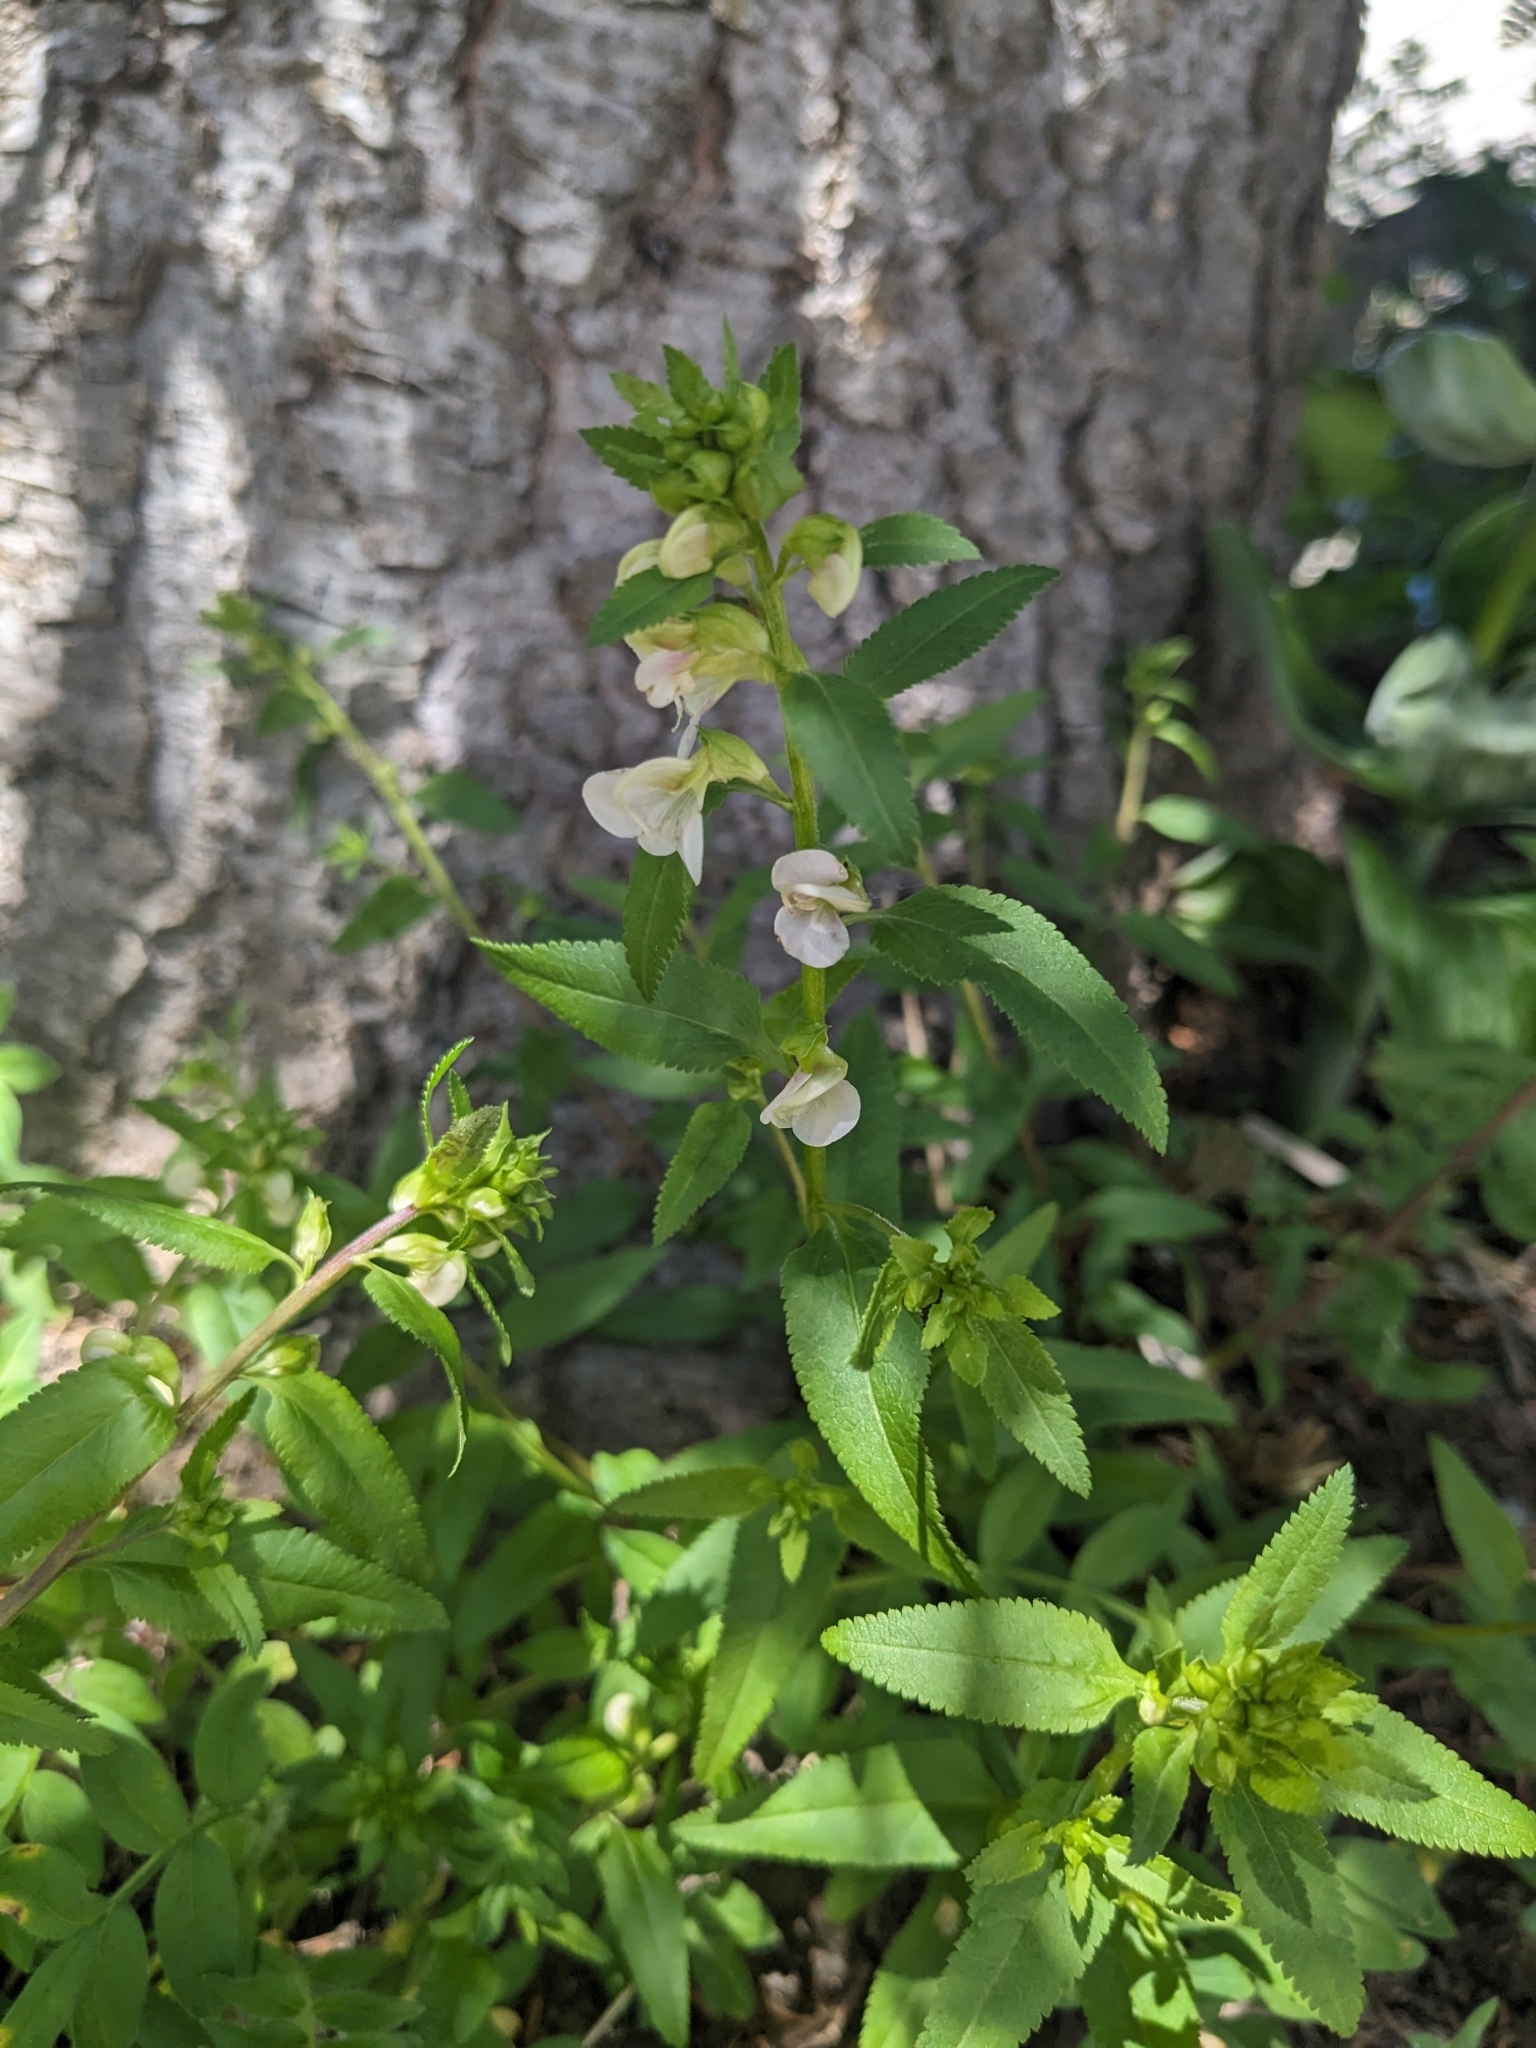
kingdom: Plantae
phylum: Tracheophyta
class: Magnoliopsida
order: Lamiales
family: Orobanchaceae
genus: Pedicularis
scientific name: Pedicularis racemosa
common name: Leafy lousewort
